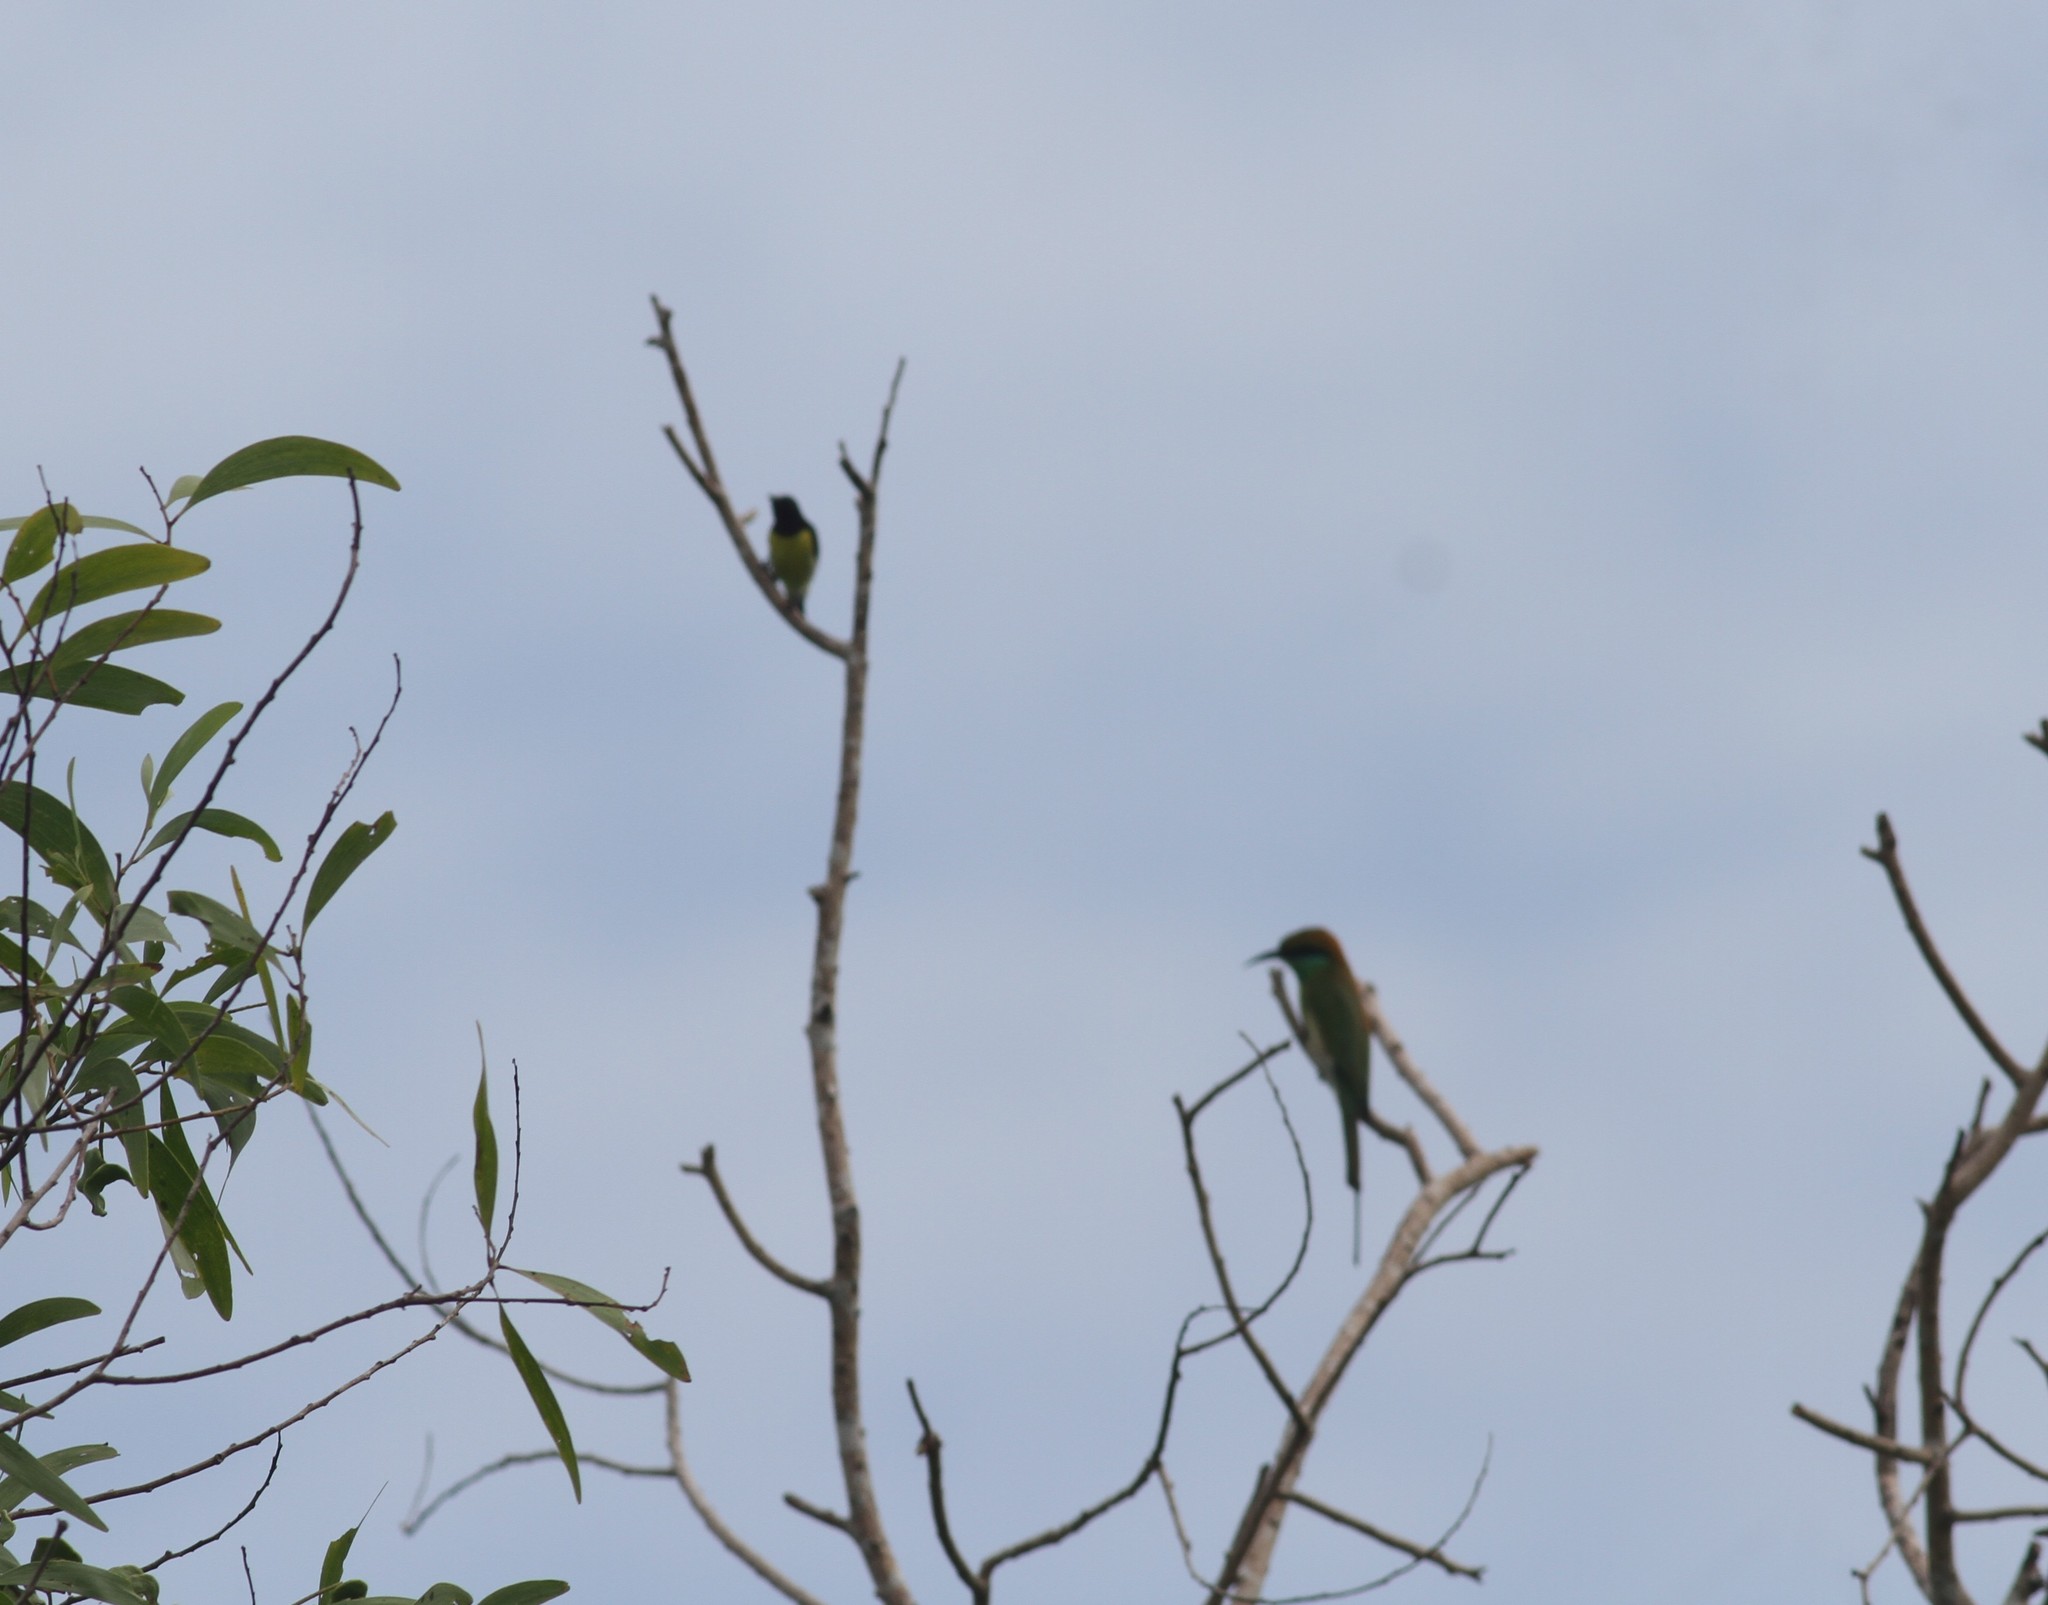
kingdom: Animalia
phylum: Chordata
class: Aves
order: Coraciiformes
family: Meropidae
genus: Merops
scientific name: Merops orientalis
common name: Green bee-eater
